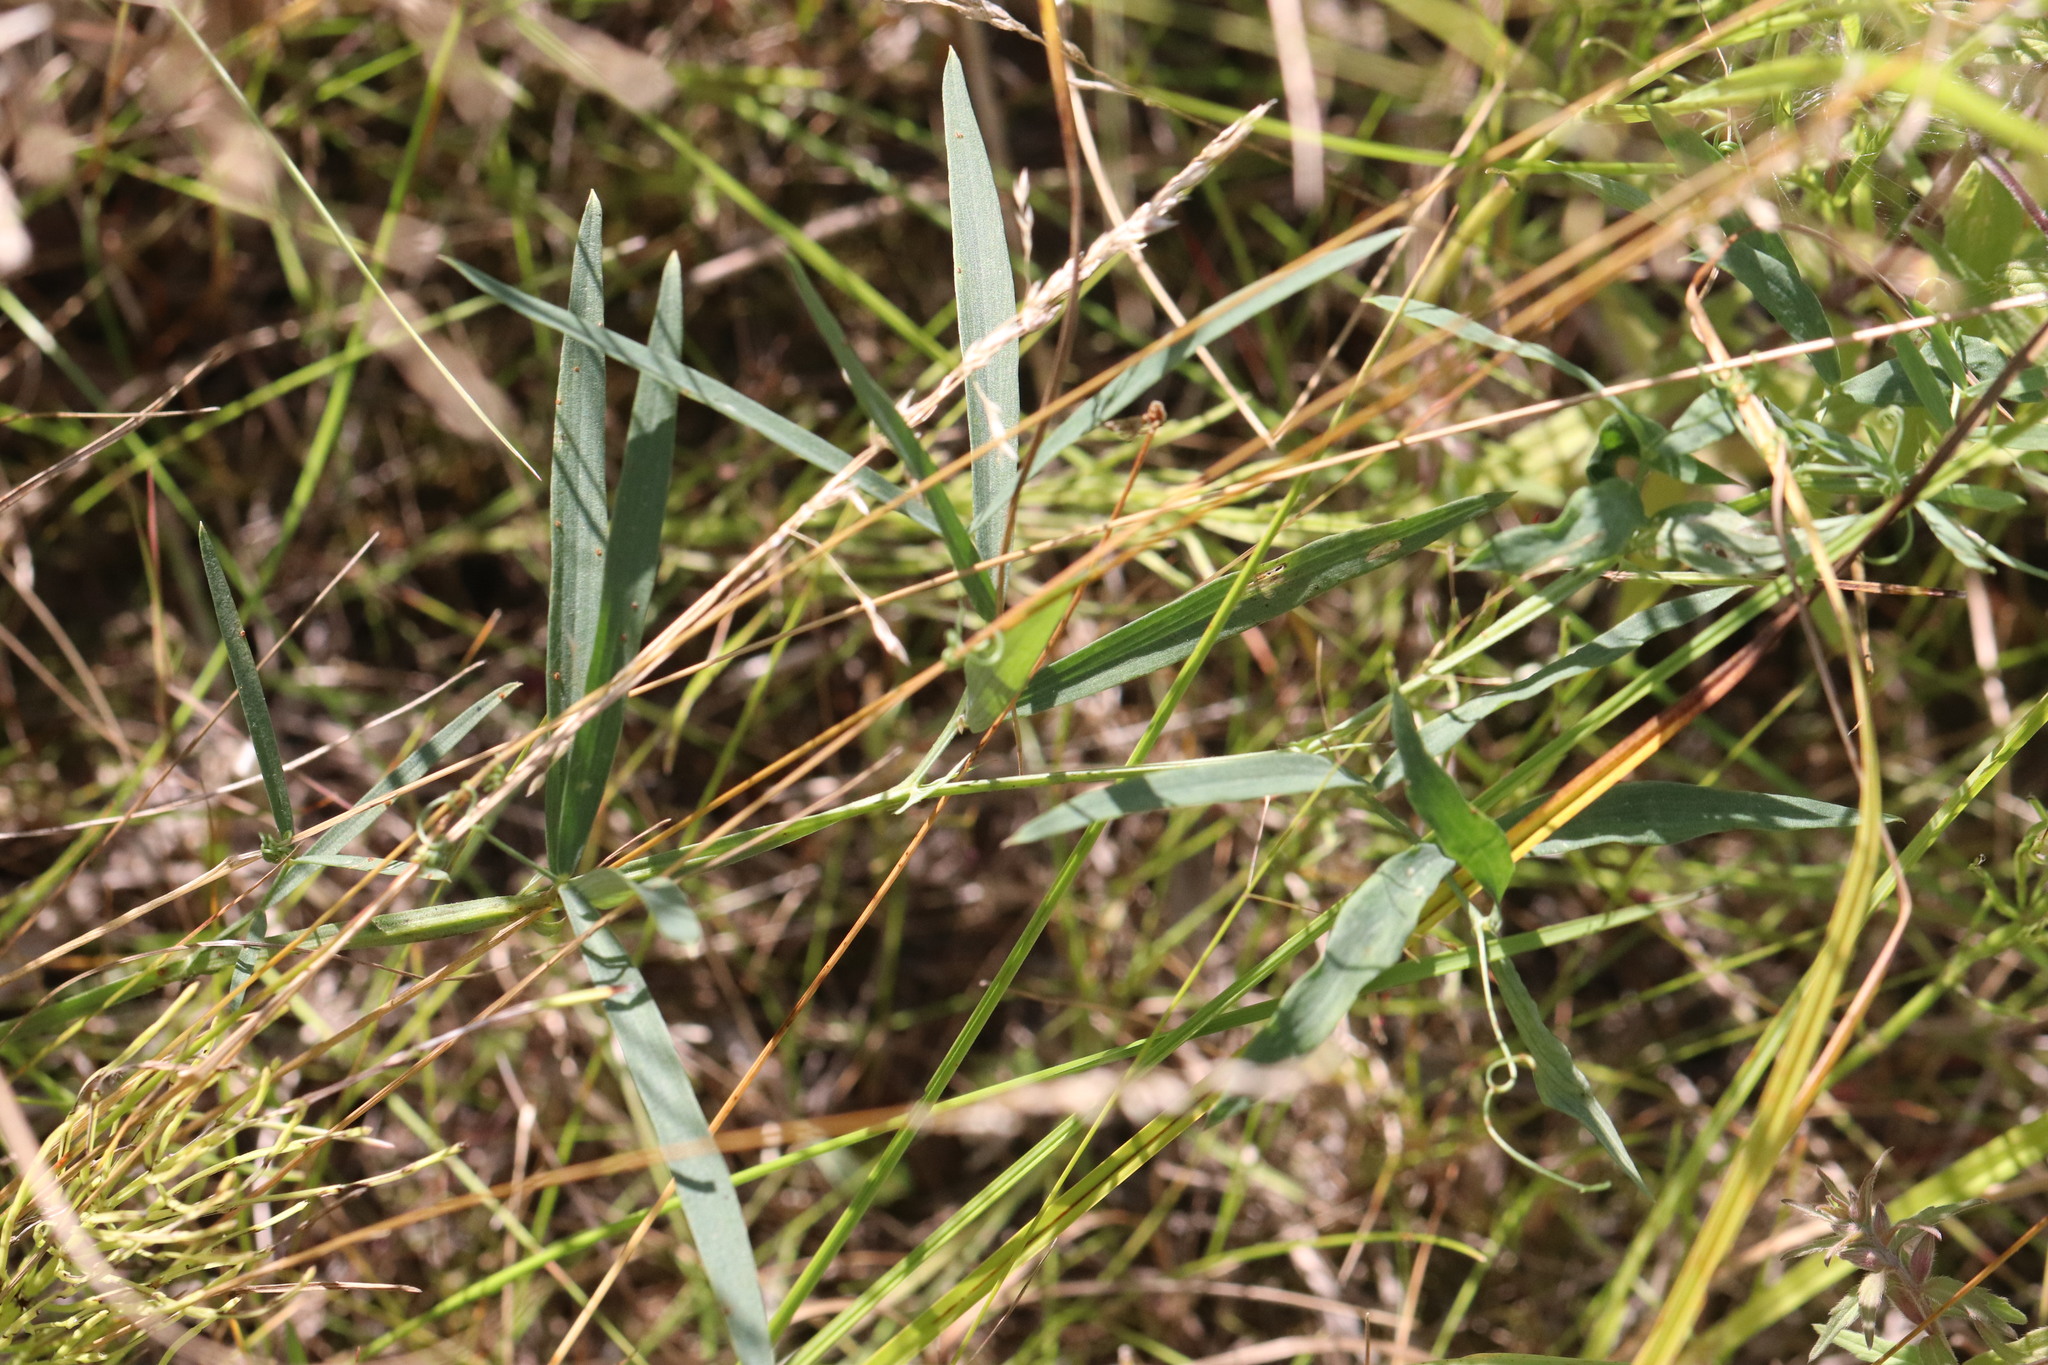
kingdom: Plantae
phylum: Tracheophyta
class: Magnoliopsida
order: Fabales
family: Fabaceae
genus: Lathyrus
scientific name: Lathyrus palustris
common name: Marsh pea
